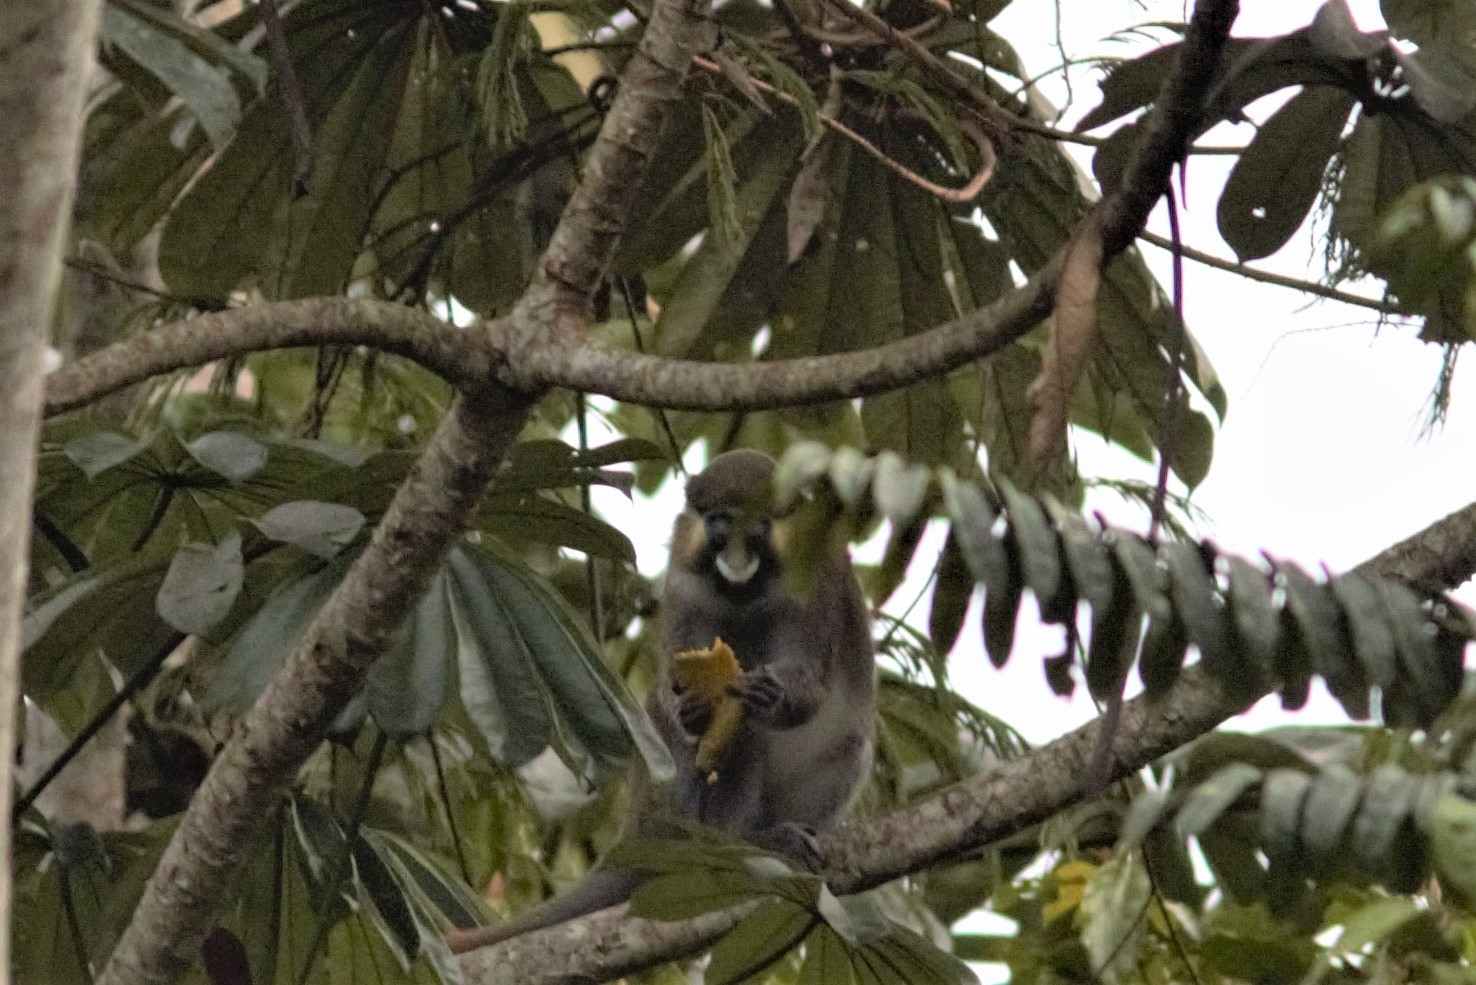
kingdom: Animalia
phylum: Chordata
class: Mammalia
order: Primates
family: Cercopithecidae
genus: Cercopithecus
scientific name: Cercopithecus cephus
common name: Moustached guenon
